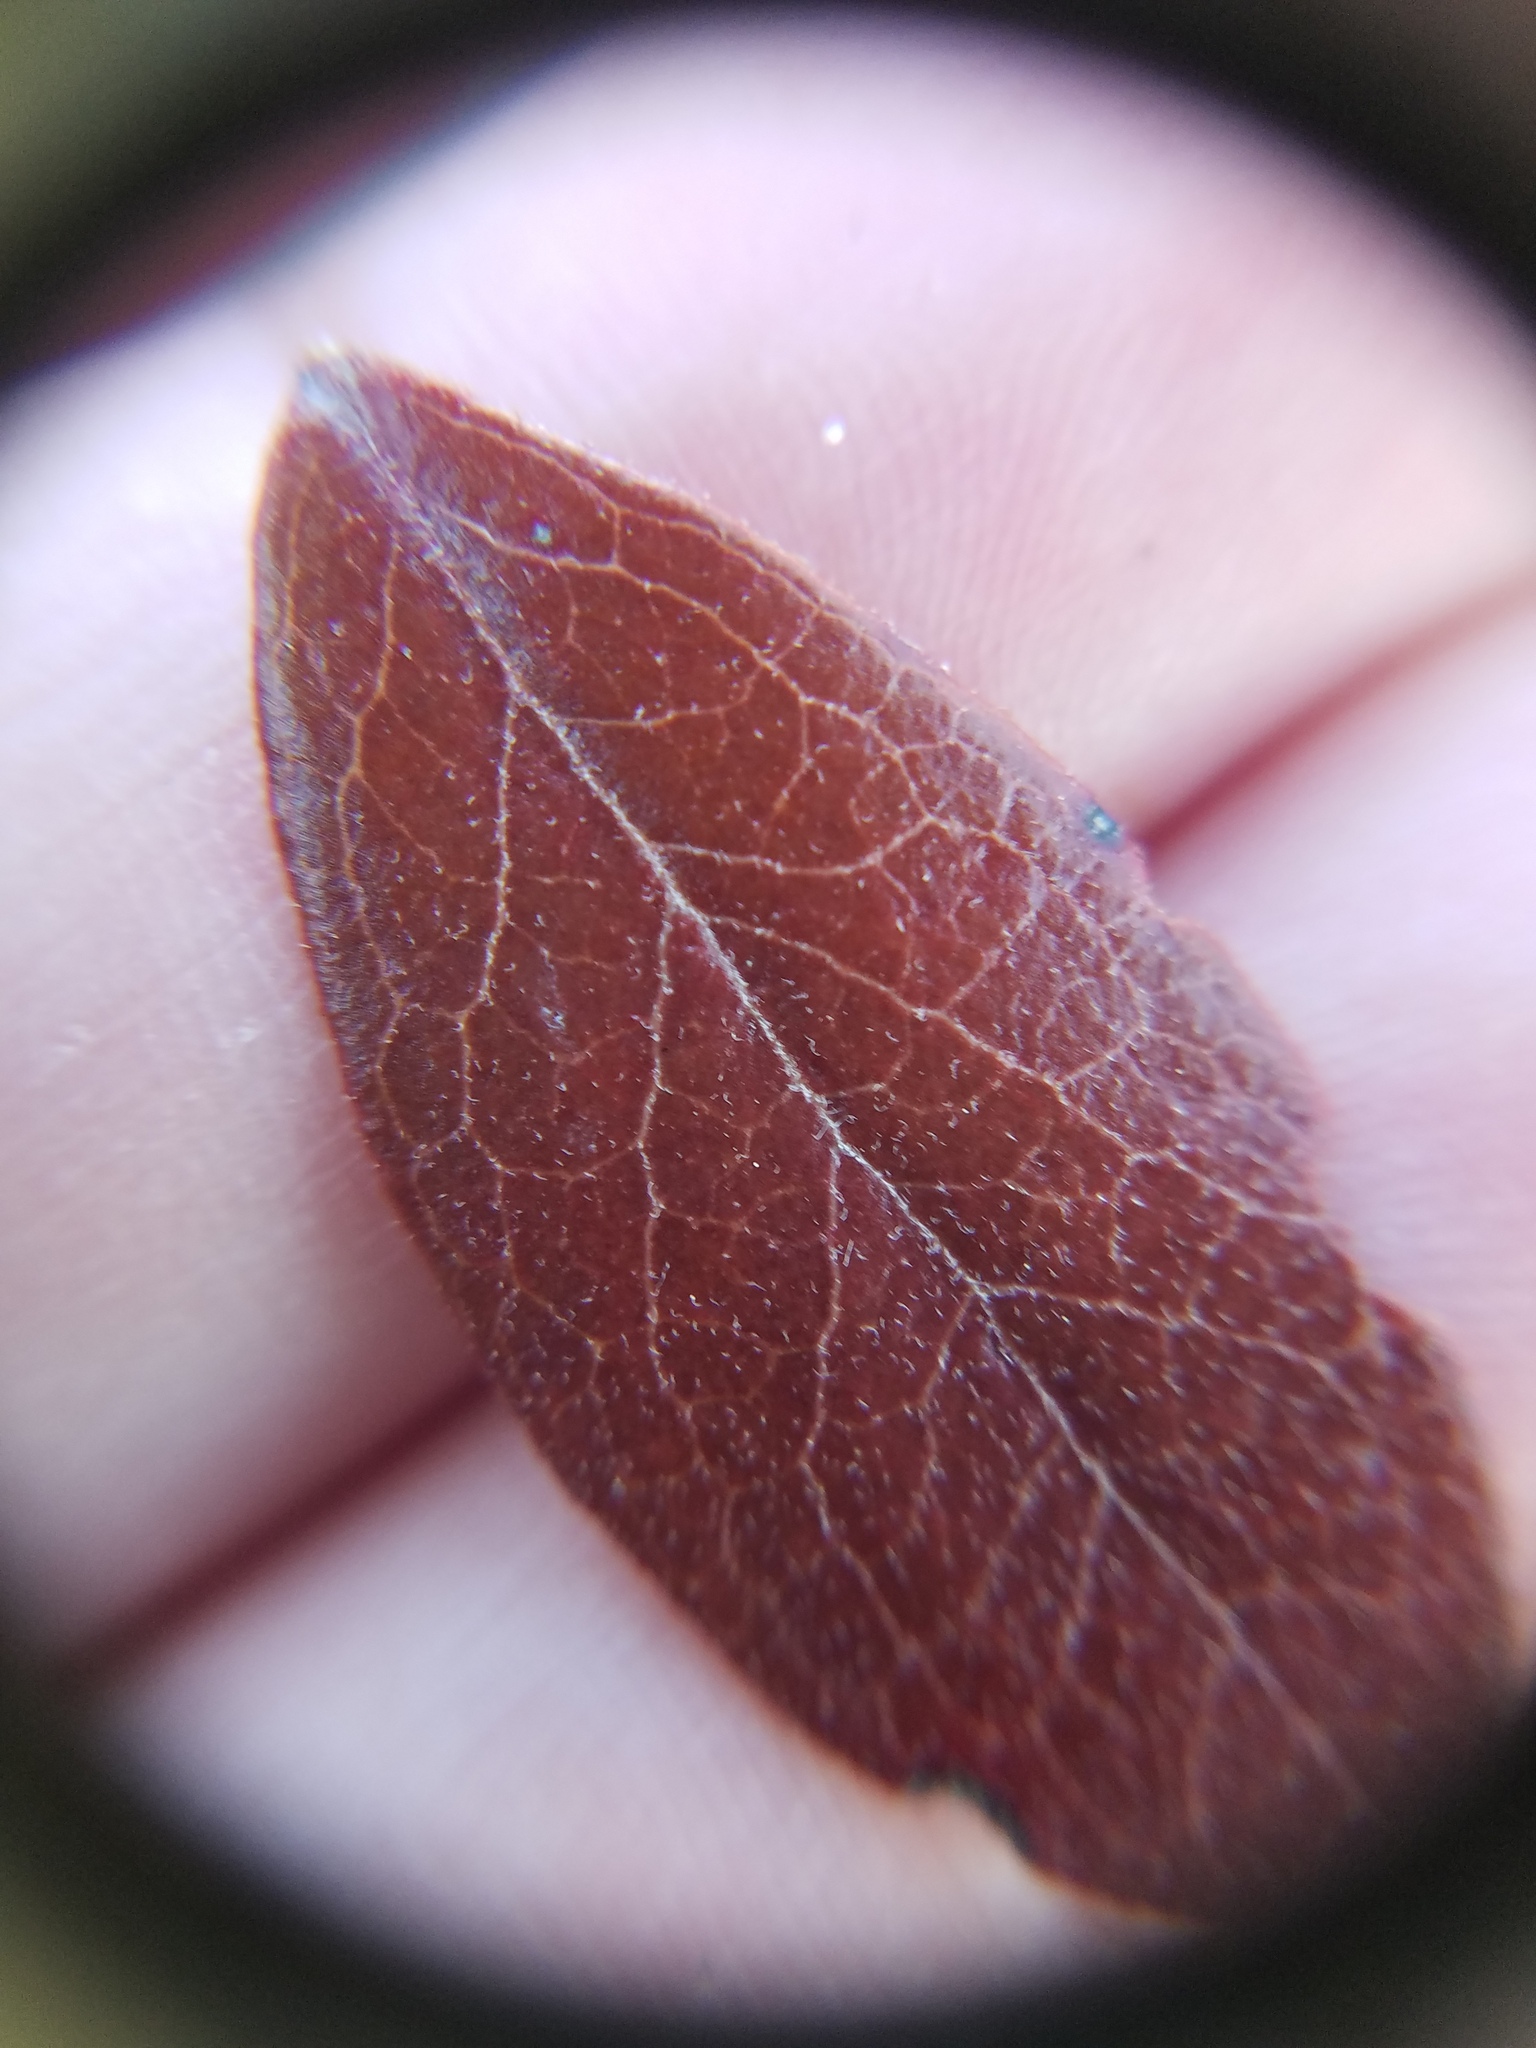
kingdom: Plantae
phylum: Tracheophyta
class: Magnoliopsida
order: Ericales
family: Ericaceae
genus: Gaylussacia
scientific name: Gaylussacia dumosa
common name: Dwarf huckleberry
